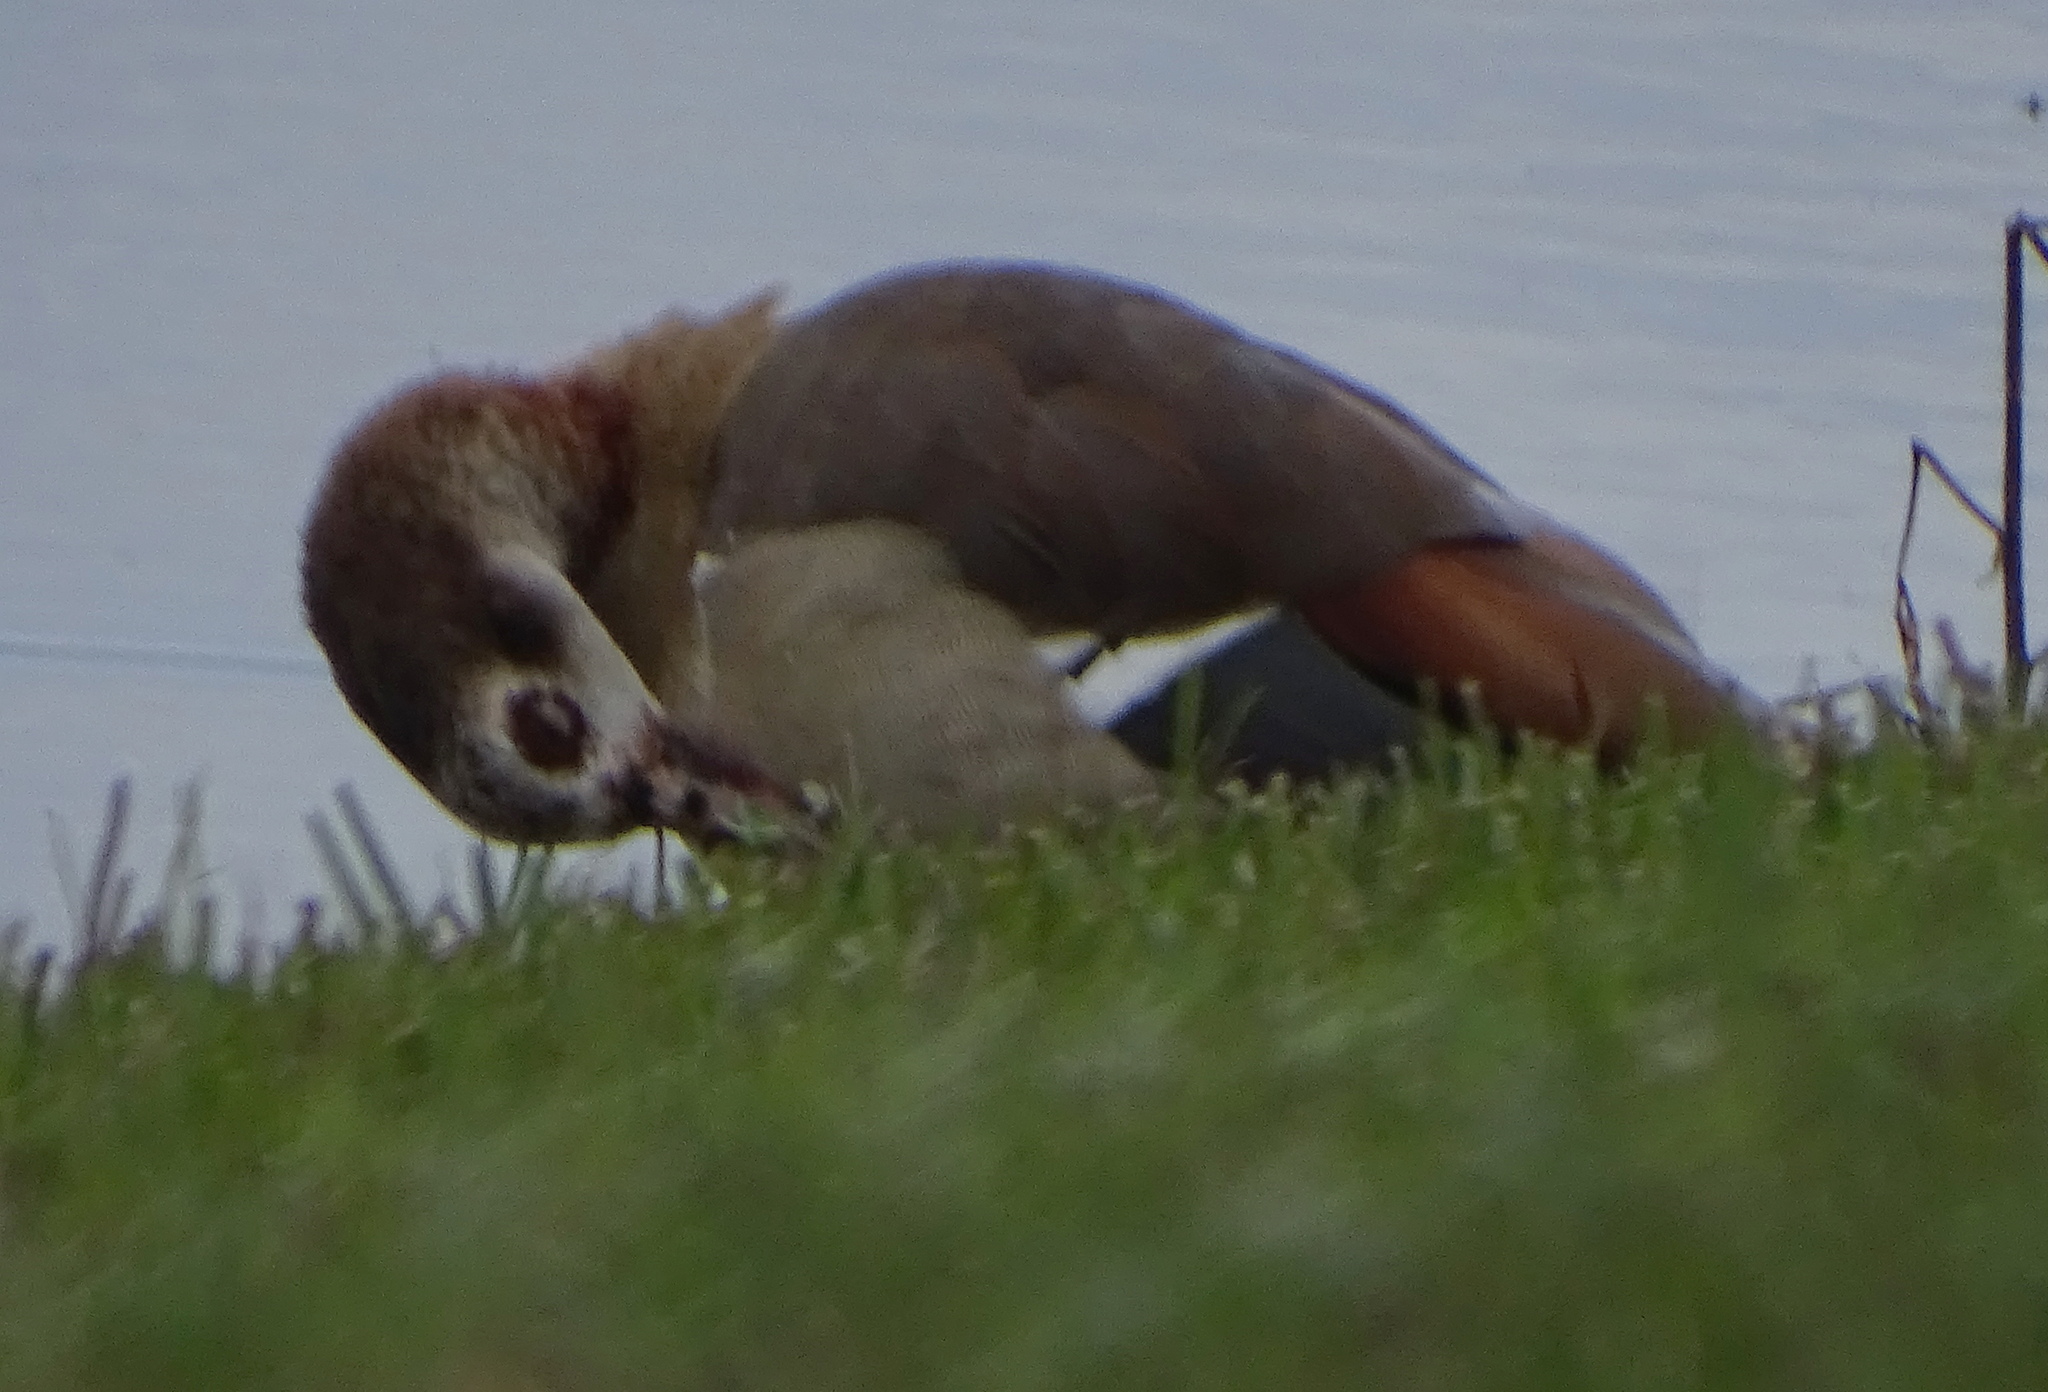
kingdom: Animalia
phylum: Chordata
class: Aves
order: Anseriformes
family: Anatidae
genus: Alopochen
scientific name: Alopochen aegyptiaca
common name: Egyptian goose
